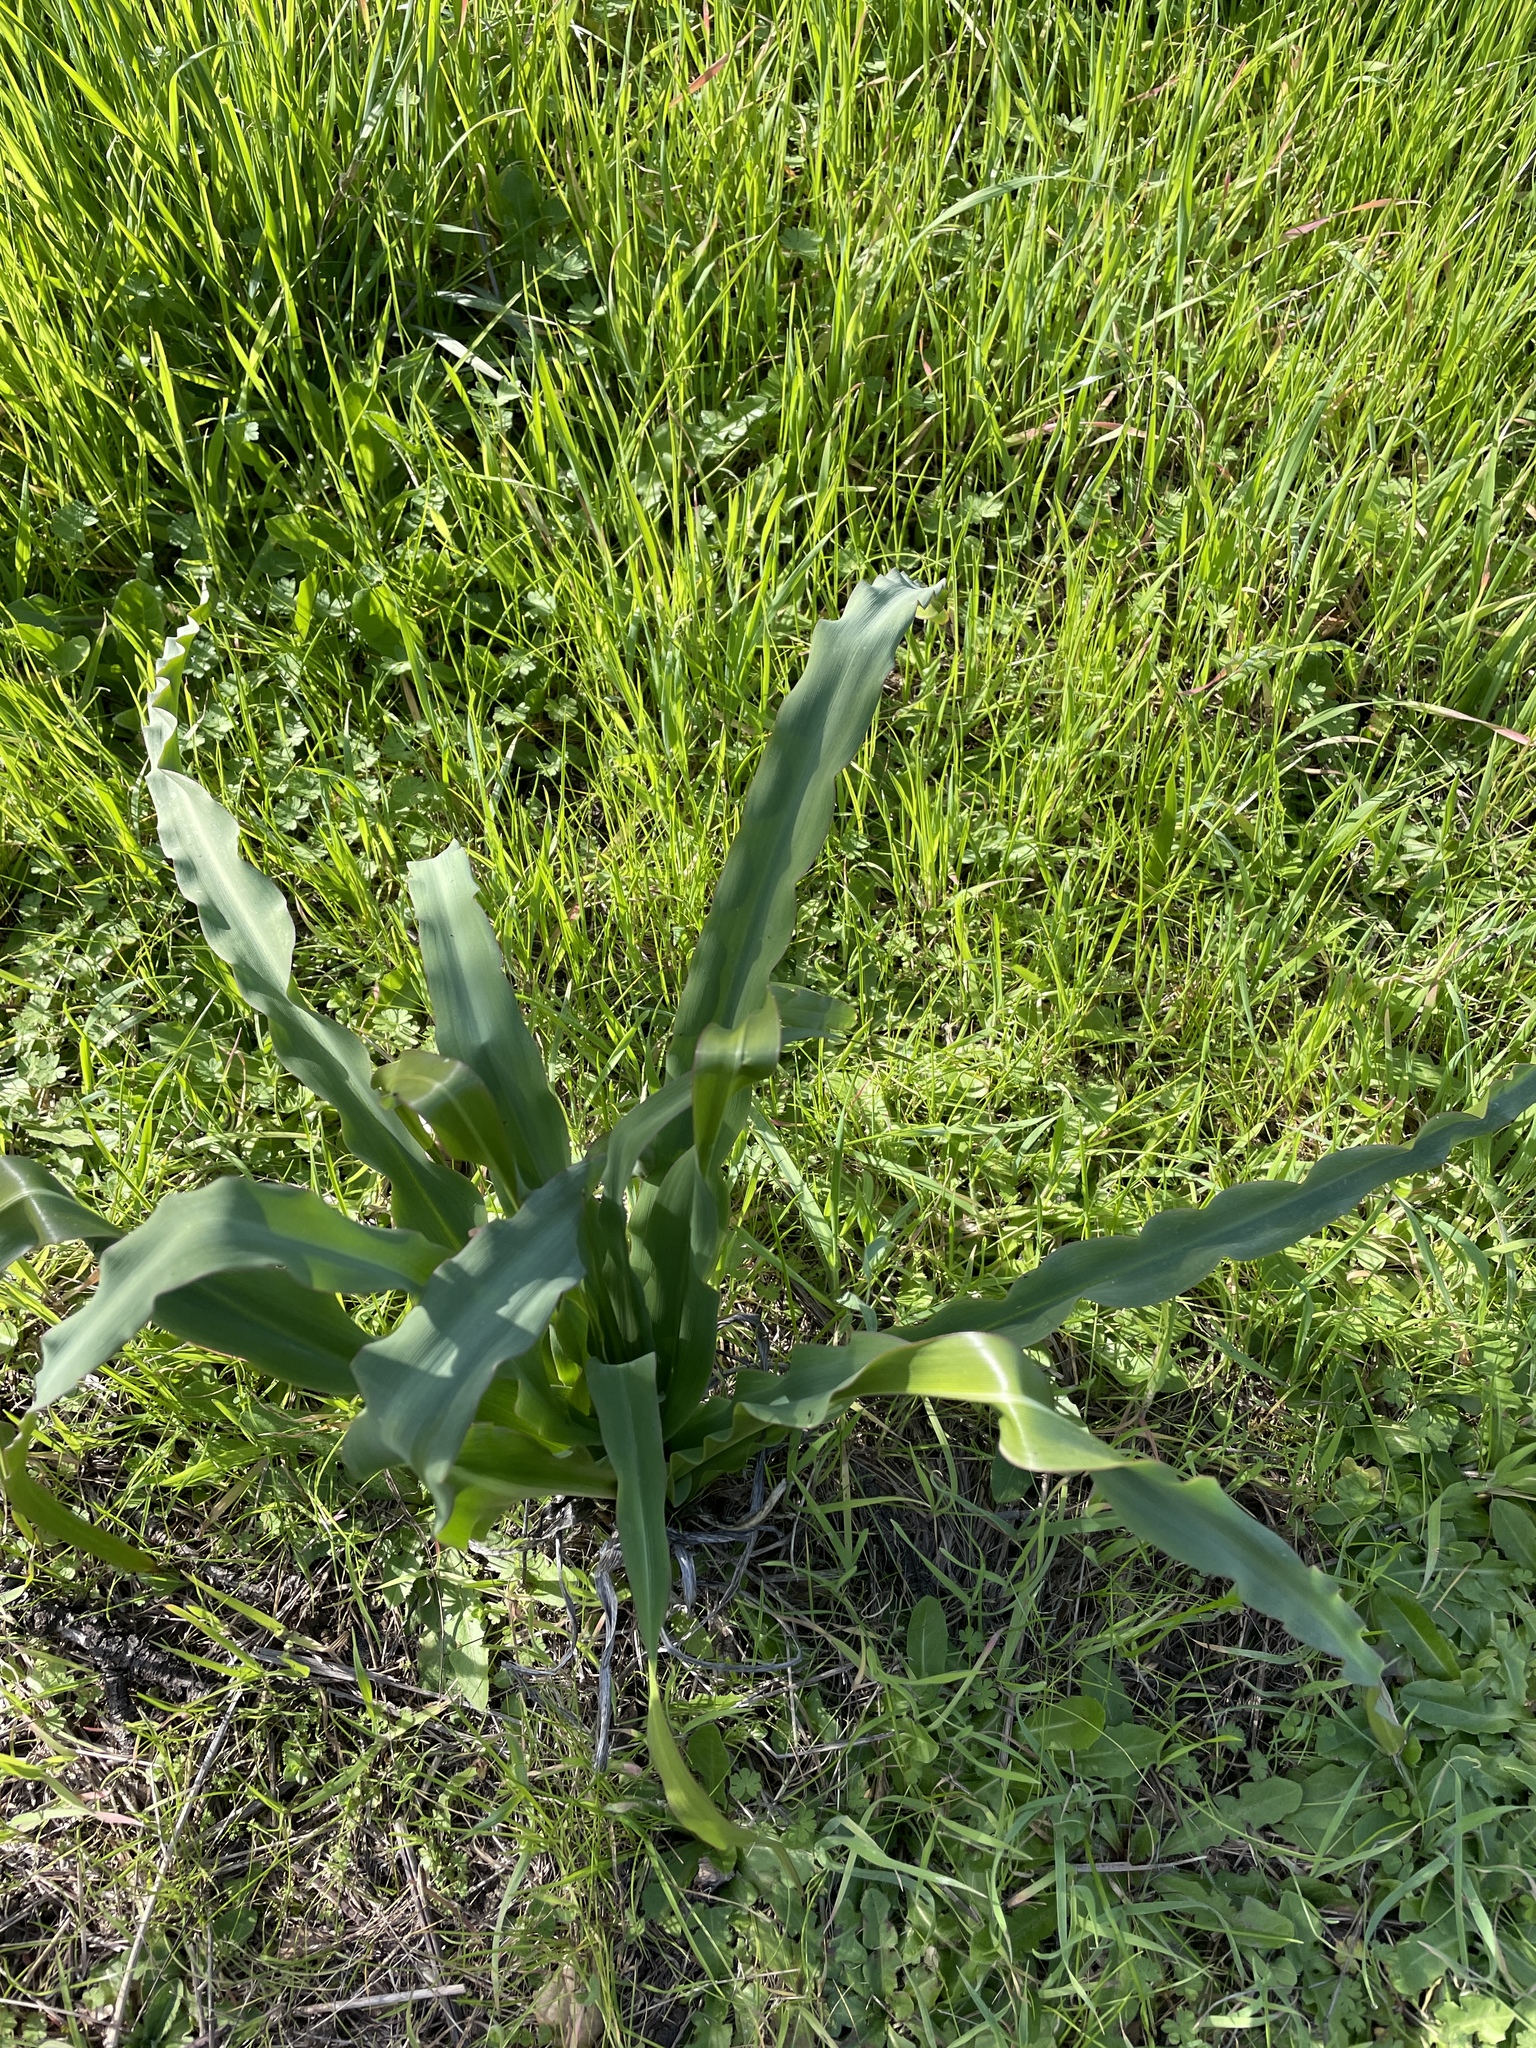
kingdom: Plantae
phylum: Tracheophyta
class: Liliopsida
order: Asparagales
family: Asparagaceae
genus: Chlorogalum
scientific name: Chlorogalum pomeridianum
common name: Amole
